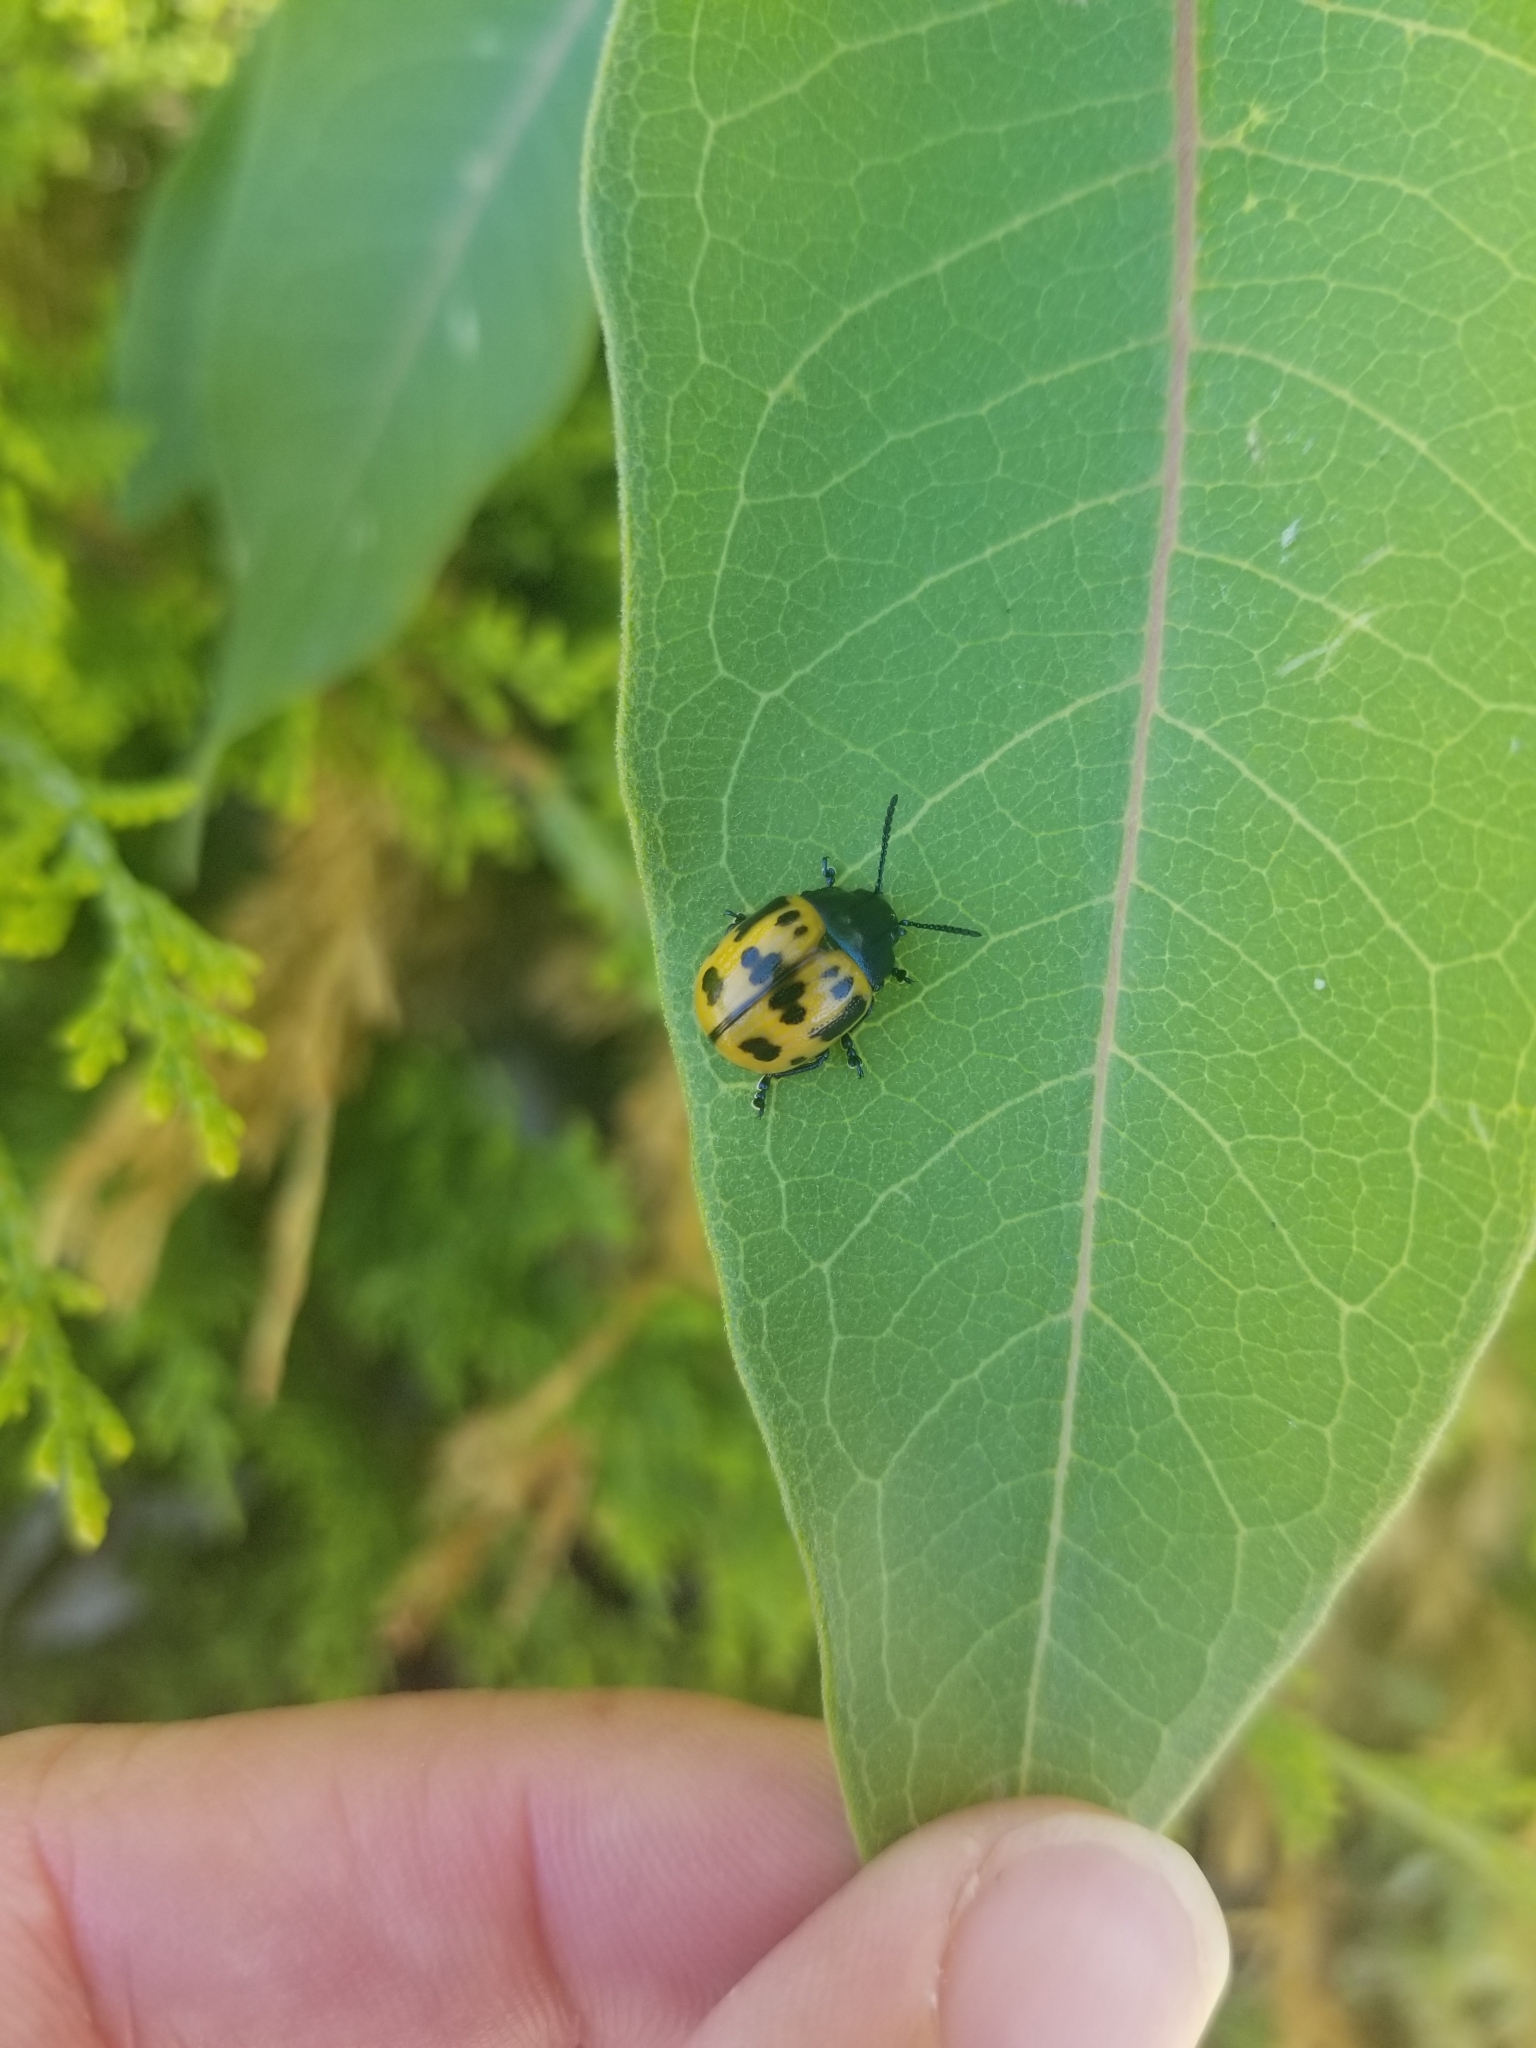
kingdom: Animalia
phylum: Arthropoda
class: Insecta
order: Coleoptera
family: Chrysomelidae
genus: Labidomera
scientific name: Labidomera clivicollis
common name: Swamp milkweed leaf beetle
